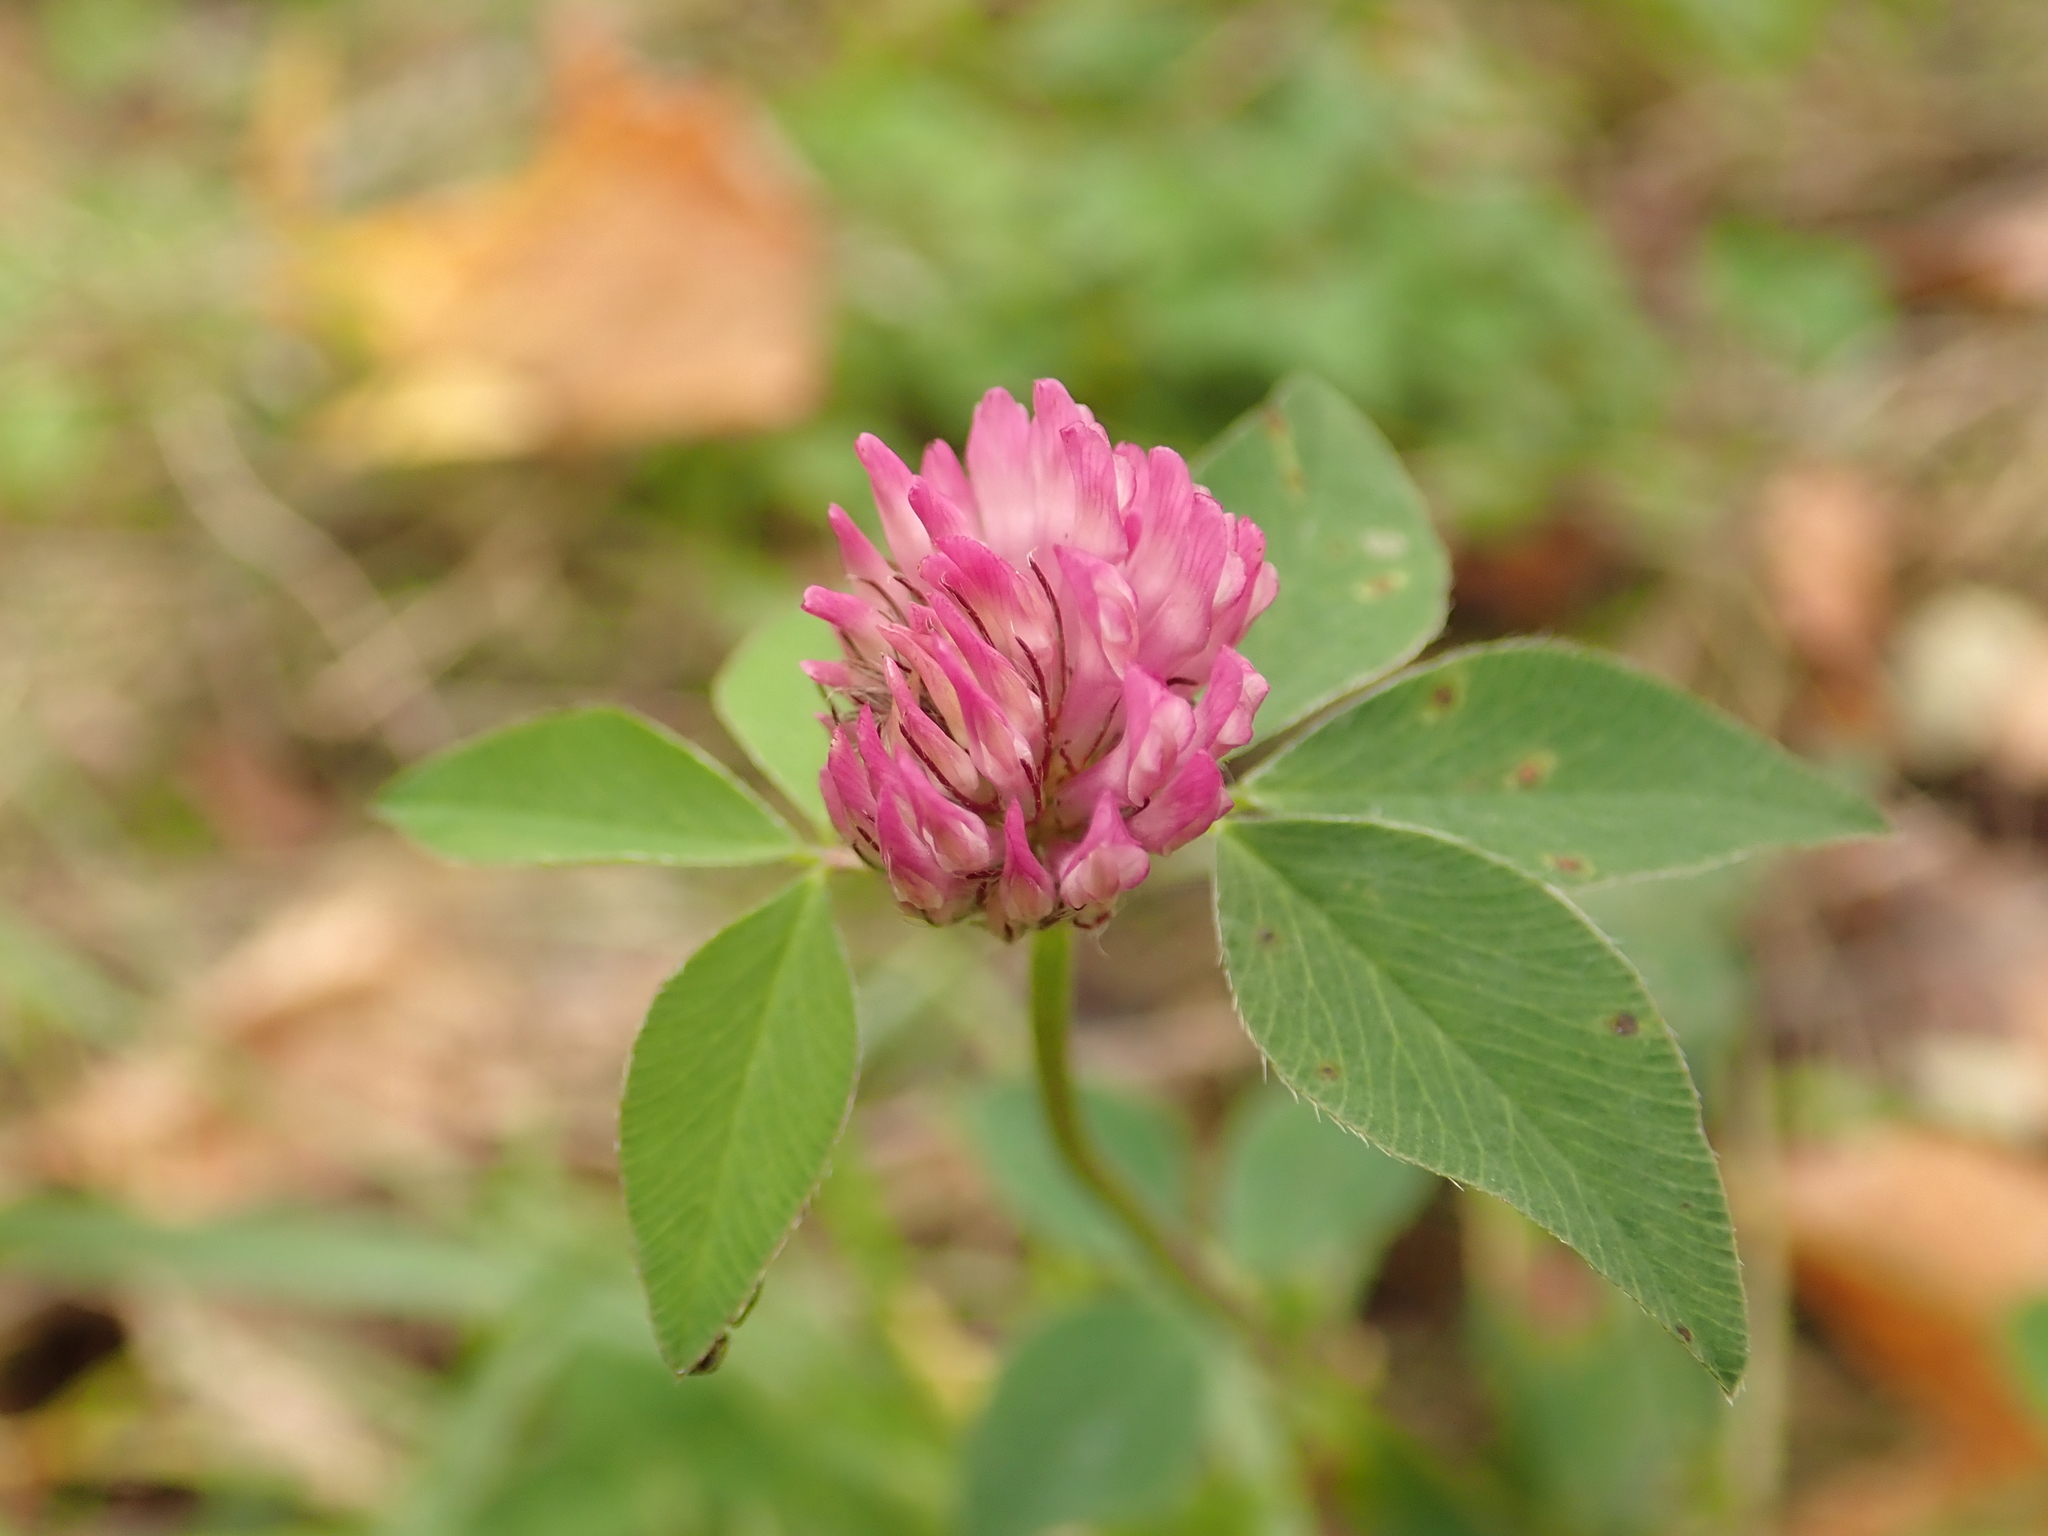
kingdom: Plantae
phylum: Tracheophyta
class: Magnoliopsida
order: Fabales
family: Fabaceae
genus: Trifolium
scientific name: Trifolium pratense
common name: Red clover
